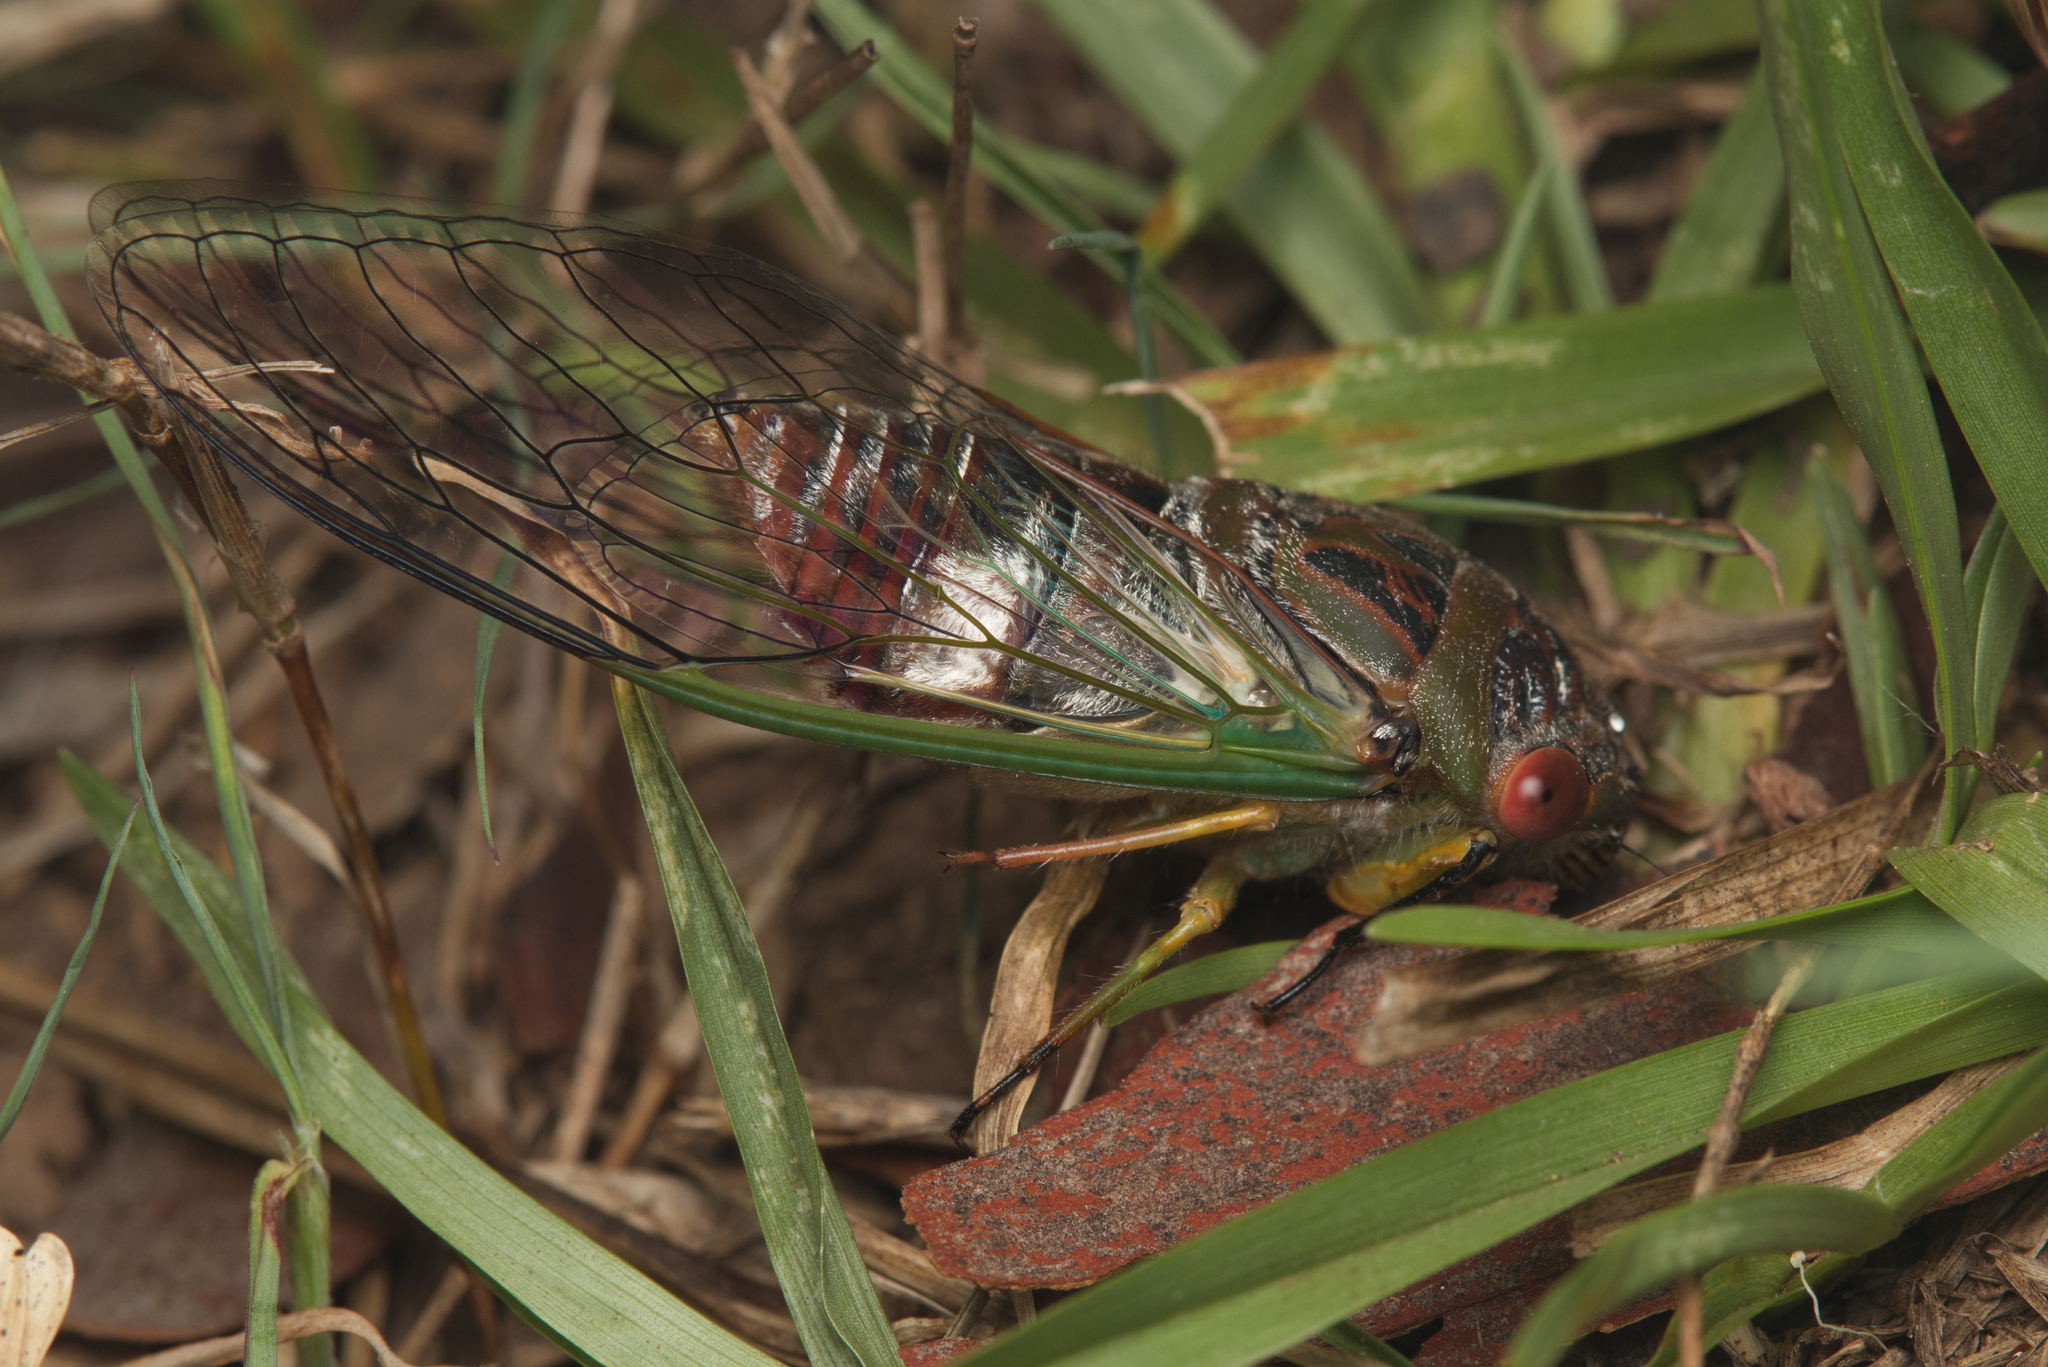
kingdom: Animalia
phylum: Arthropoda
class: Insecta
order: Hemiptera
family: Cicadidae
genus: Psaltoda
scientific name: Psaltoda claripennis
